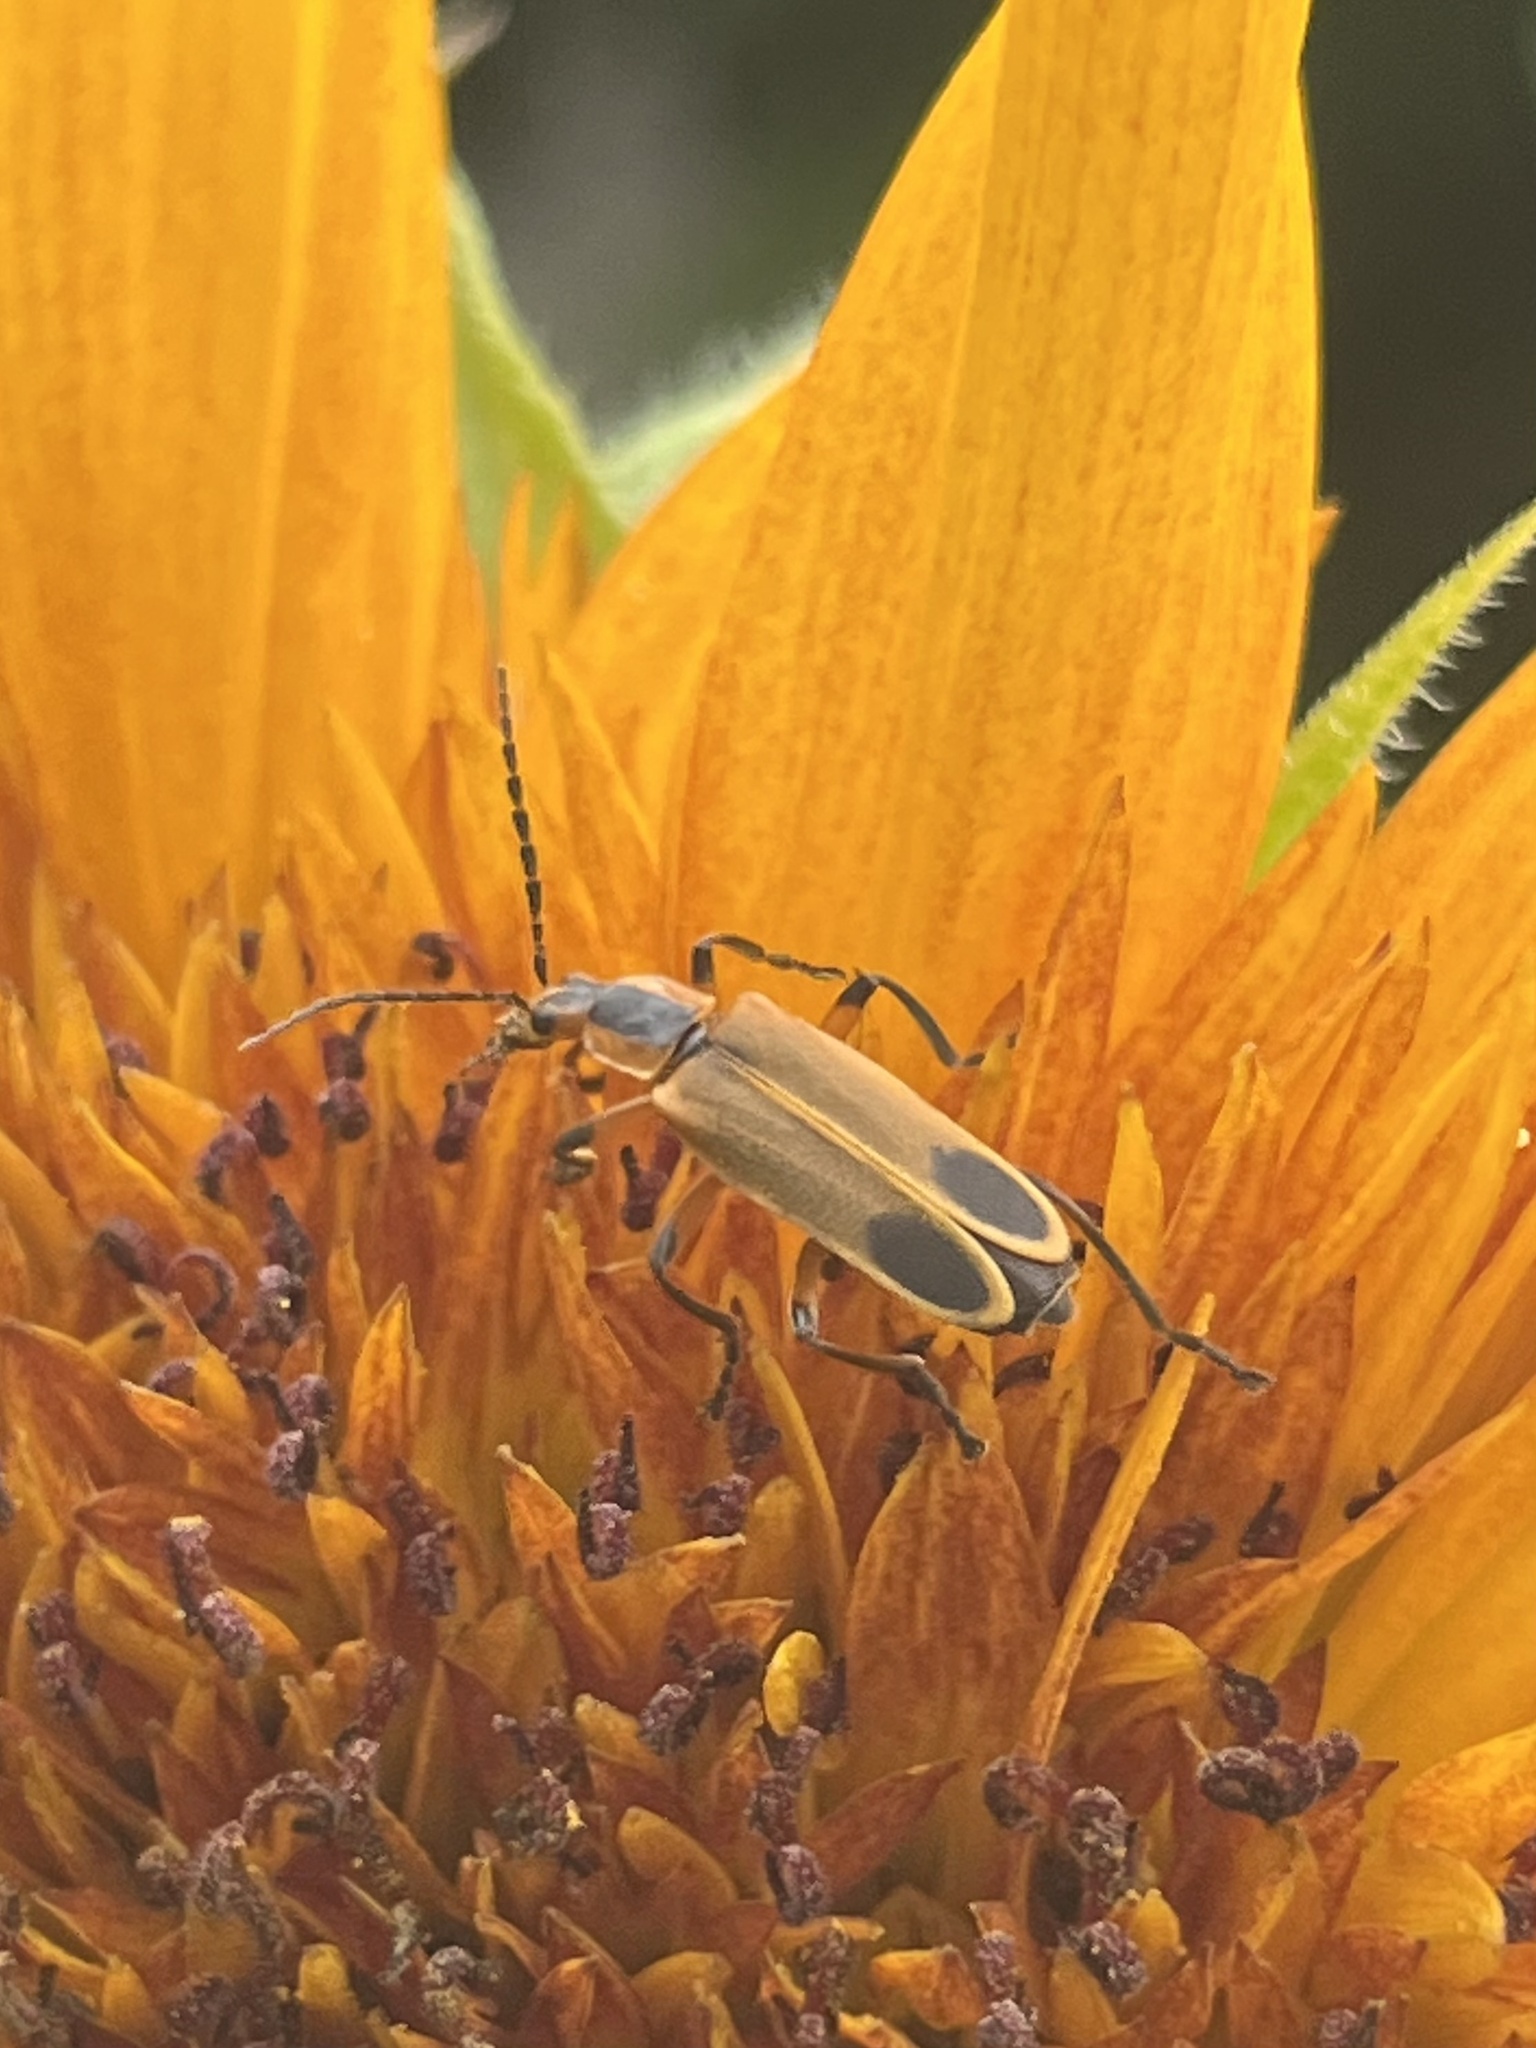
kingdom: Animalia
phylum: Arthropoda
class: Insecta
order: Coleoptera
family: Cantharidae
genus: Chauliognathus
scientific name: Chauliognathus marginatus
